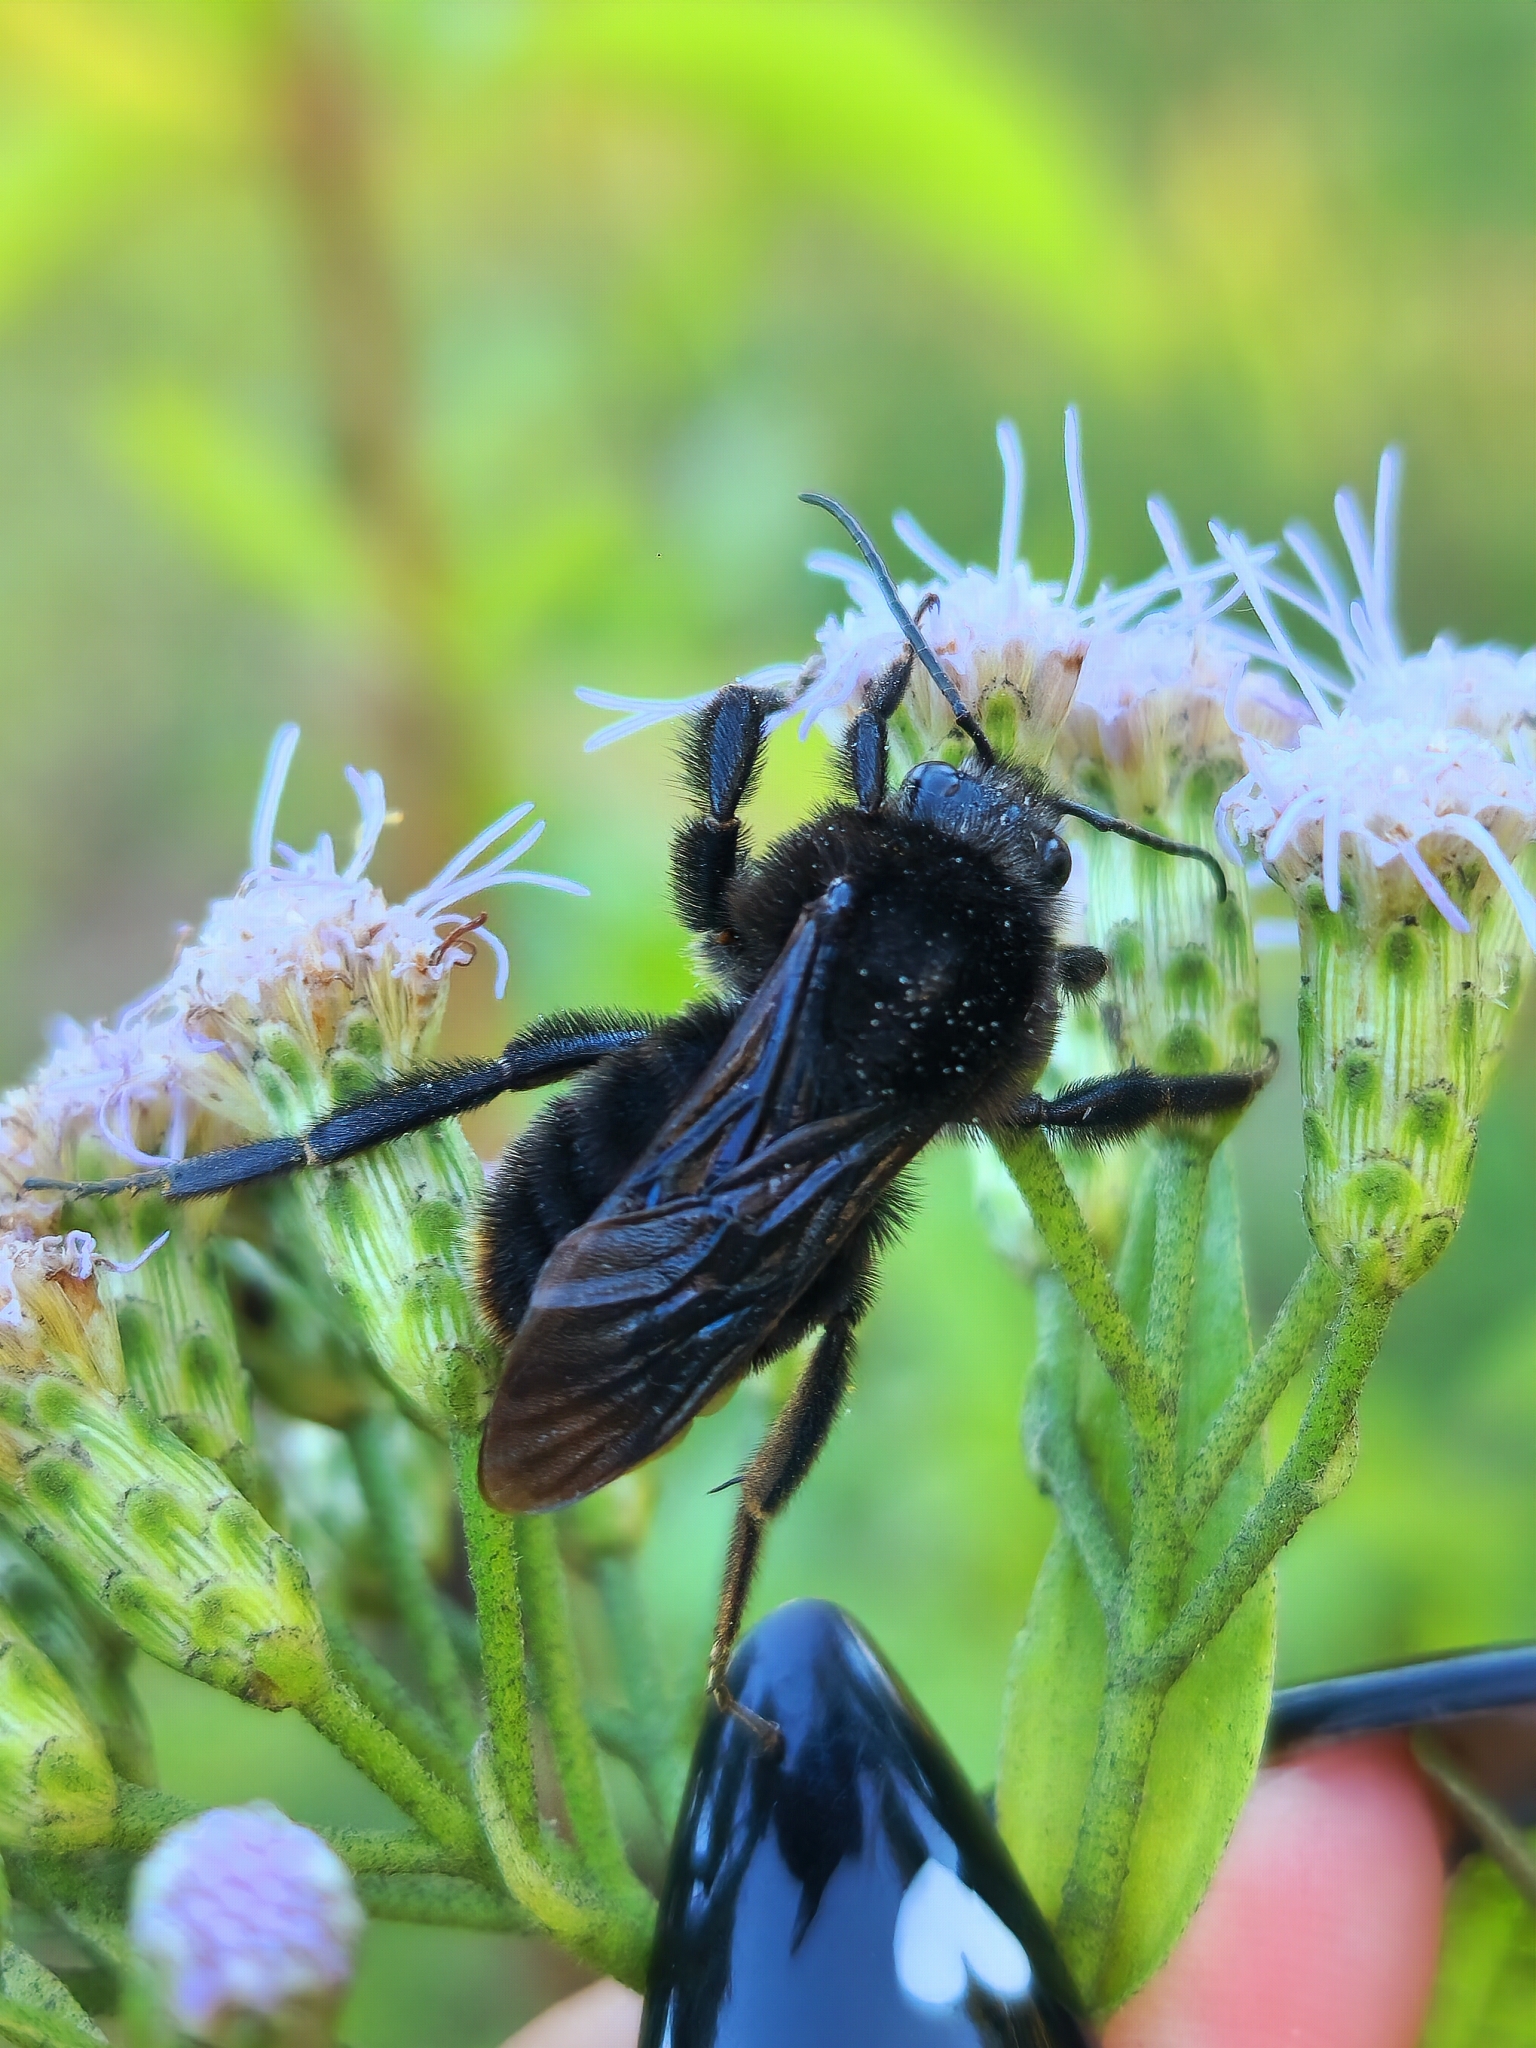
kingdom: Animalia
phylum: Arthropoda
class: Insecta
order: Hymenoptera
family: Apidae
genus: Bombus
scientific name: Bombus pauloensis
